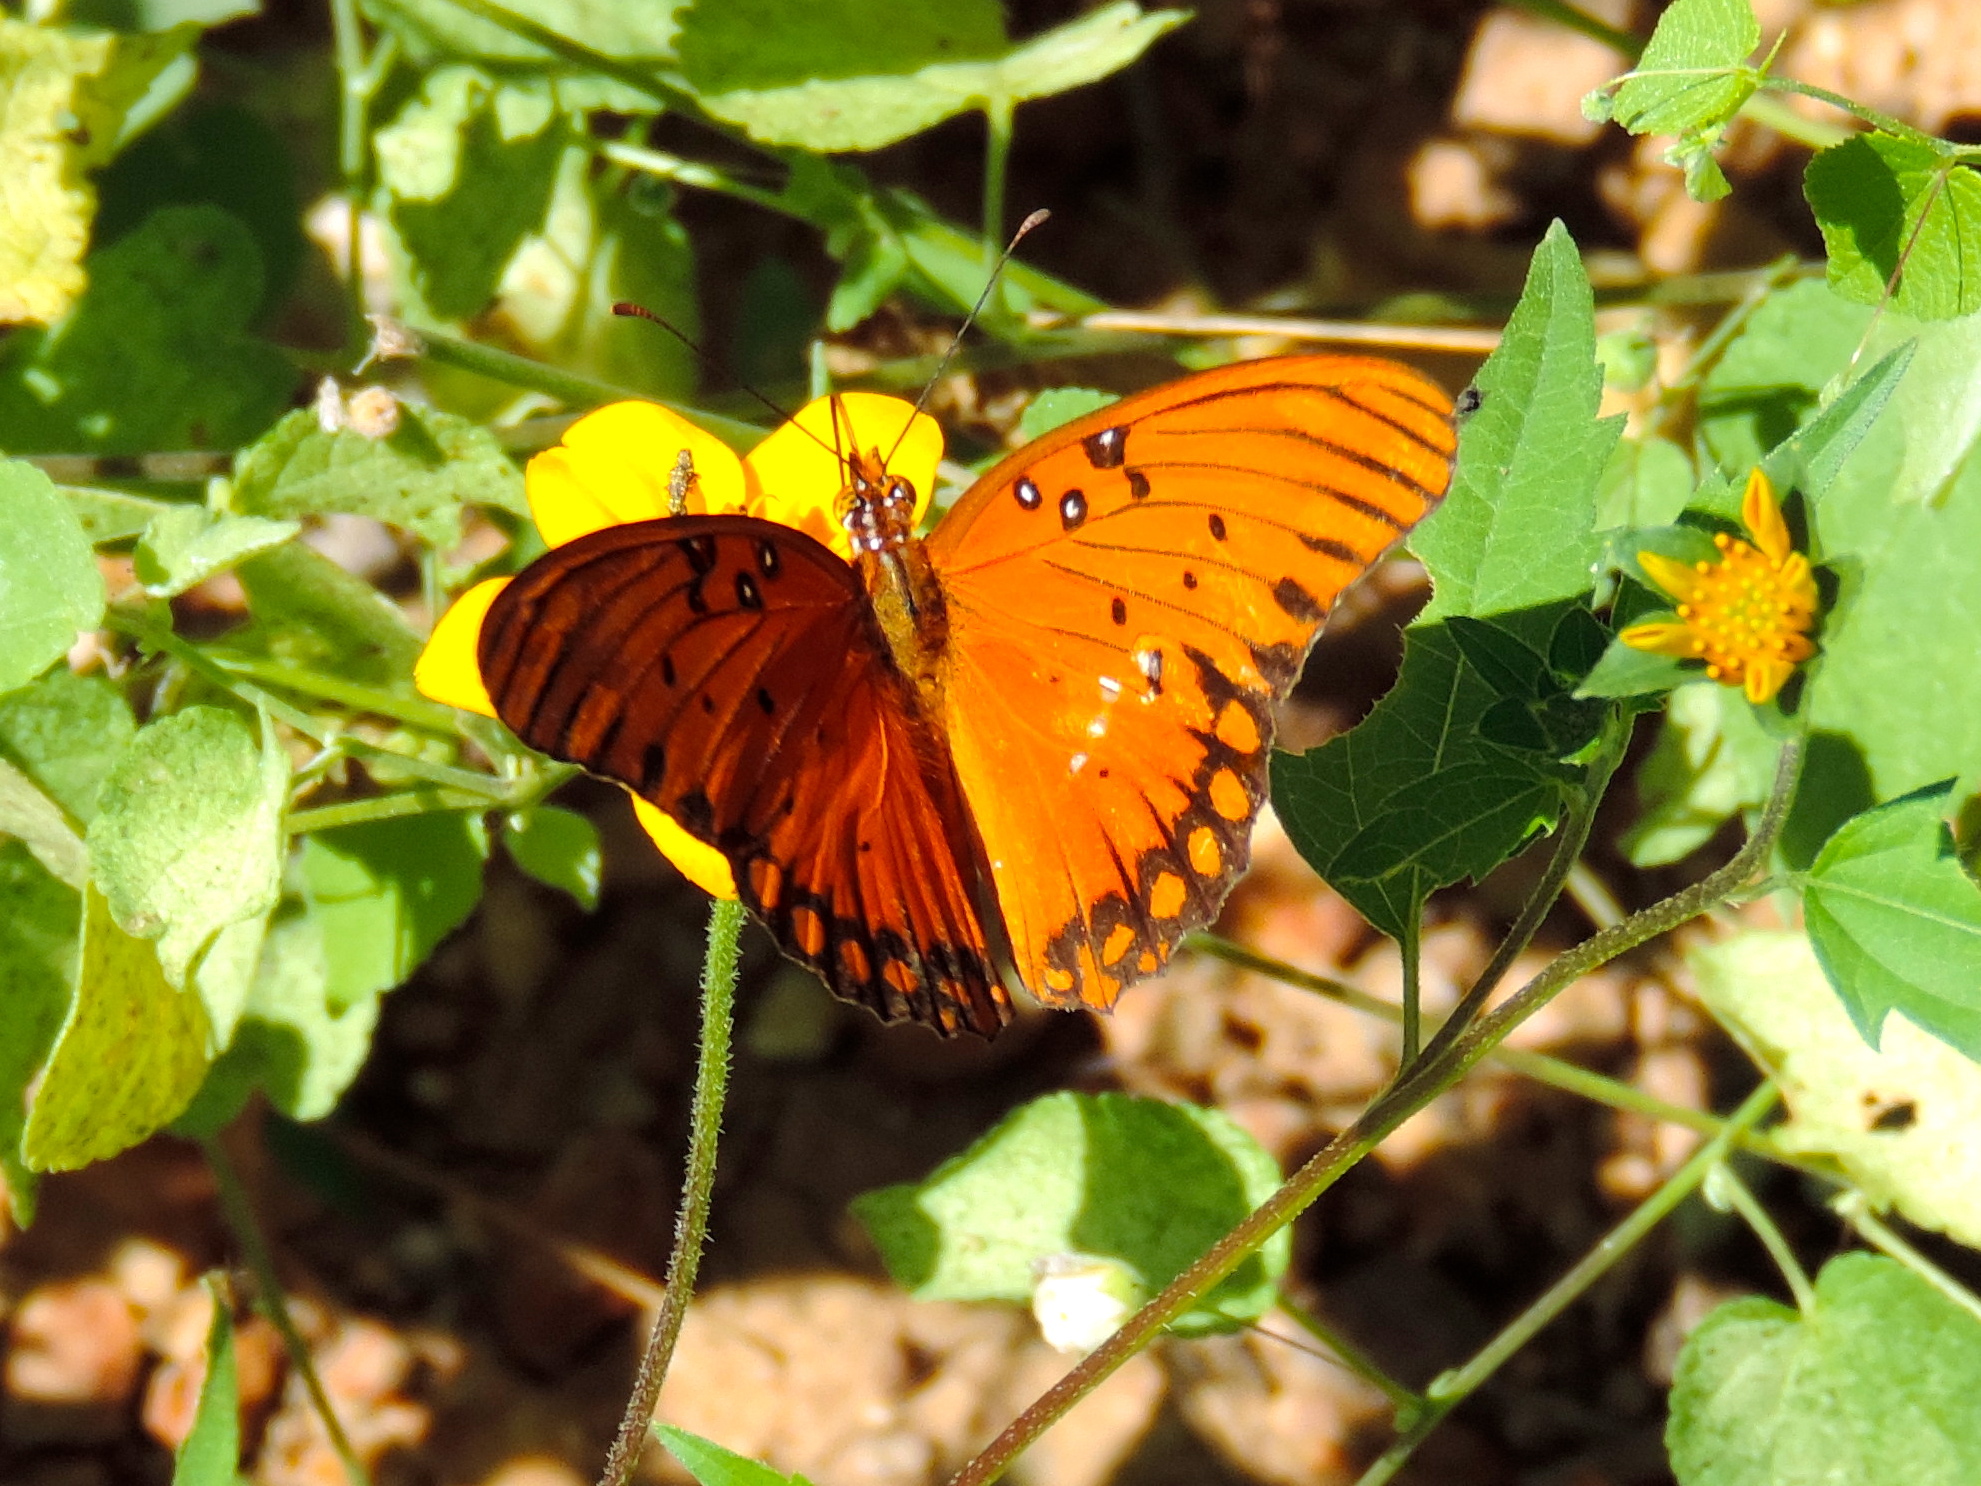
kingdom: Animalia
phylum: Arthropoda
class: Insecta
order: Lepidoptera
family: Nymphalidae
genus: Dione
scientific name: Dione vanillae
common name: Gulf fritillary
